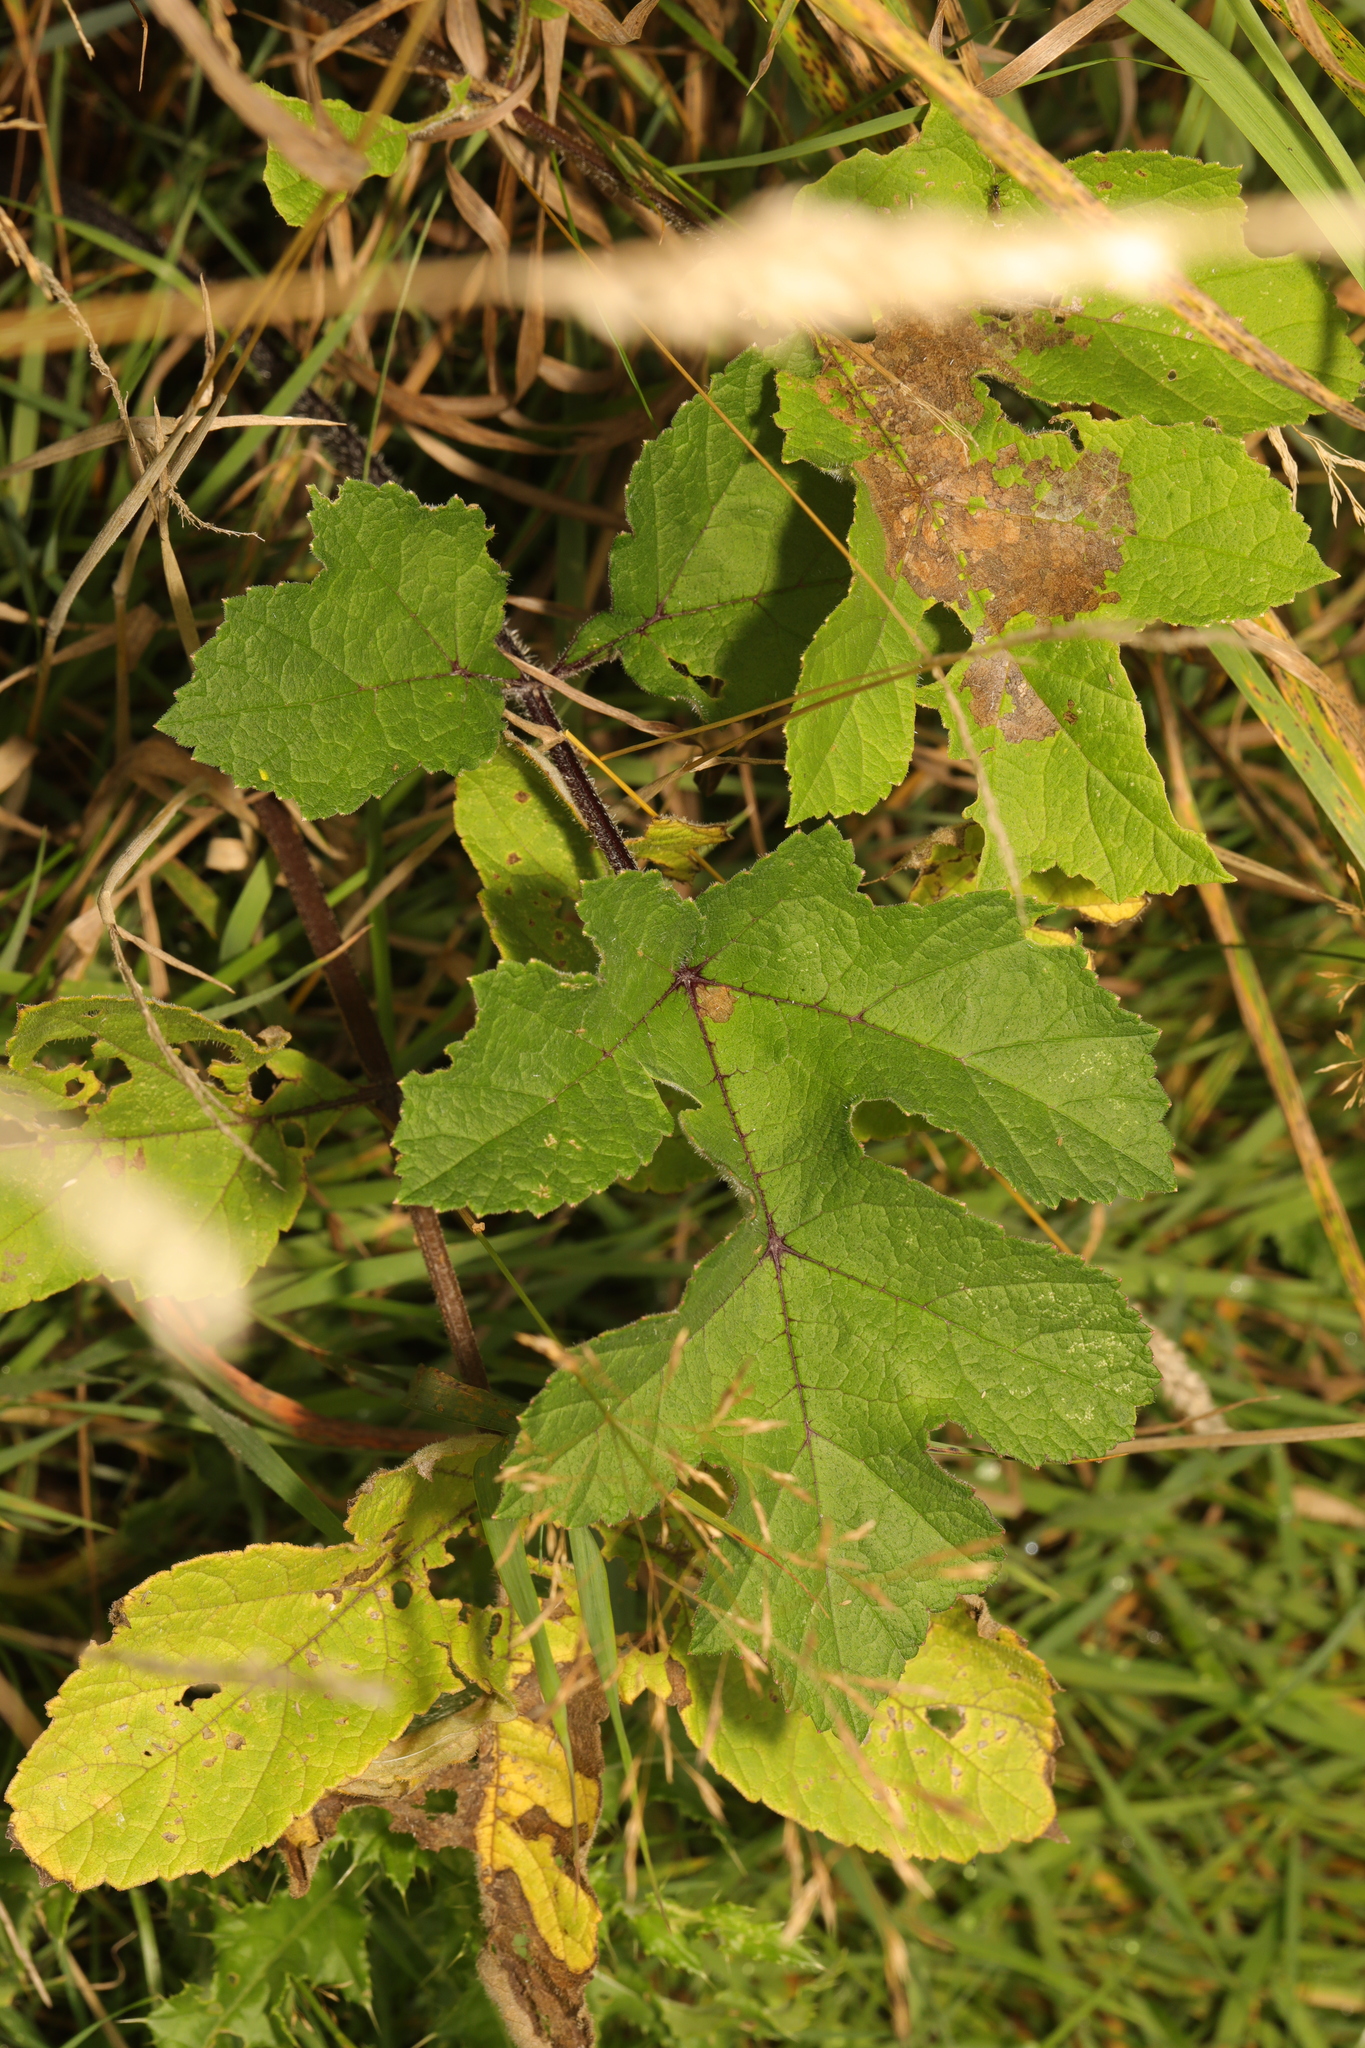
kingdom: Plantae
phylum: Tracheophyta
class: Magnoliopsida
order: Apiales
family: Apiaceae
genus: Heracleum
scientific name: Heracleum sphondylium
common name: Hogweed
